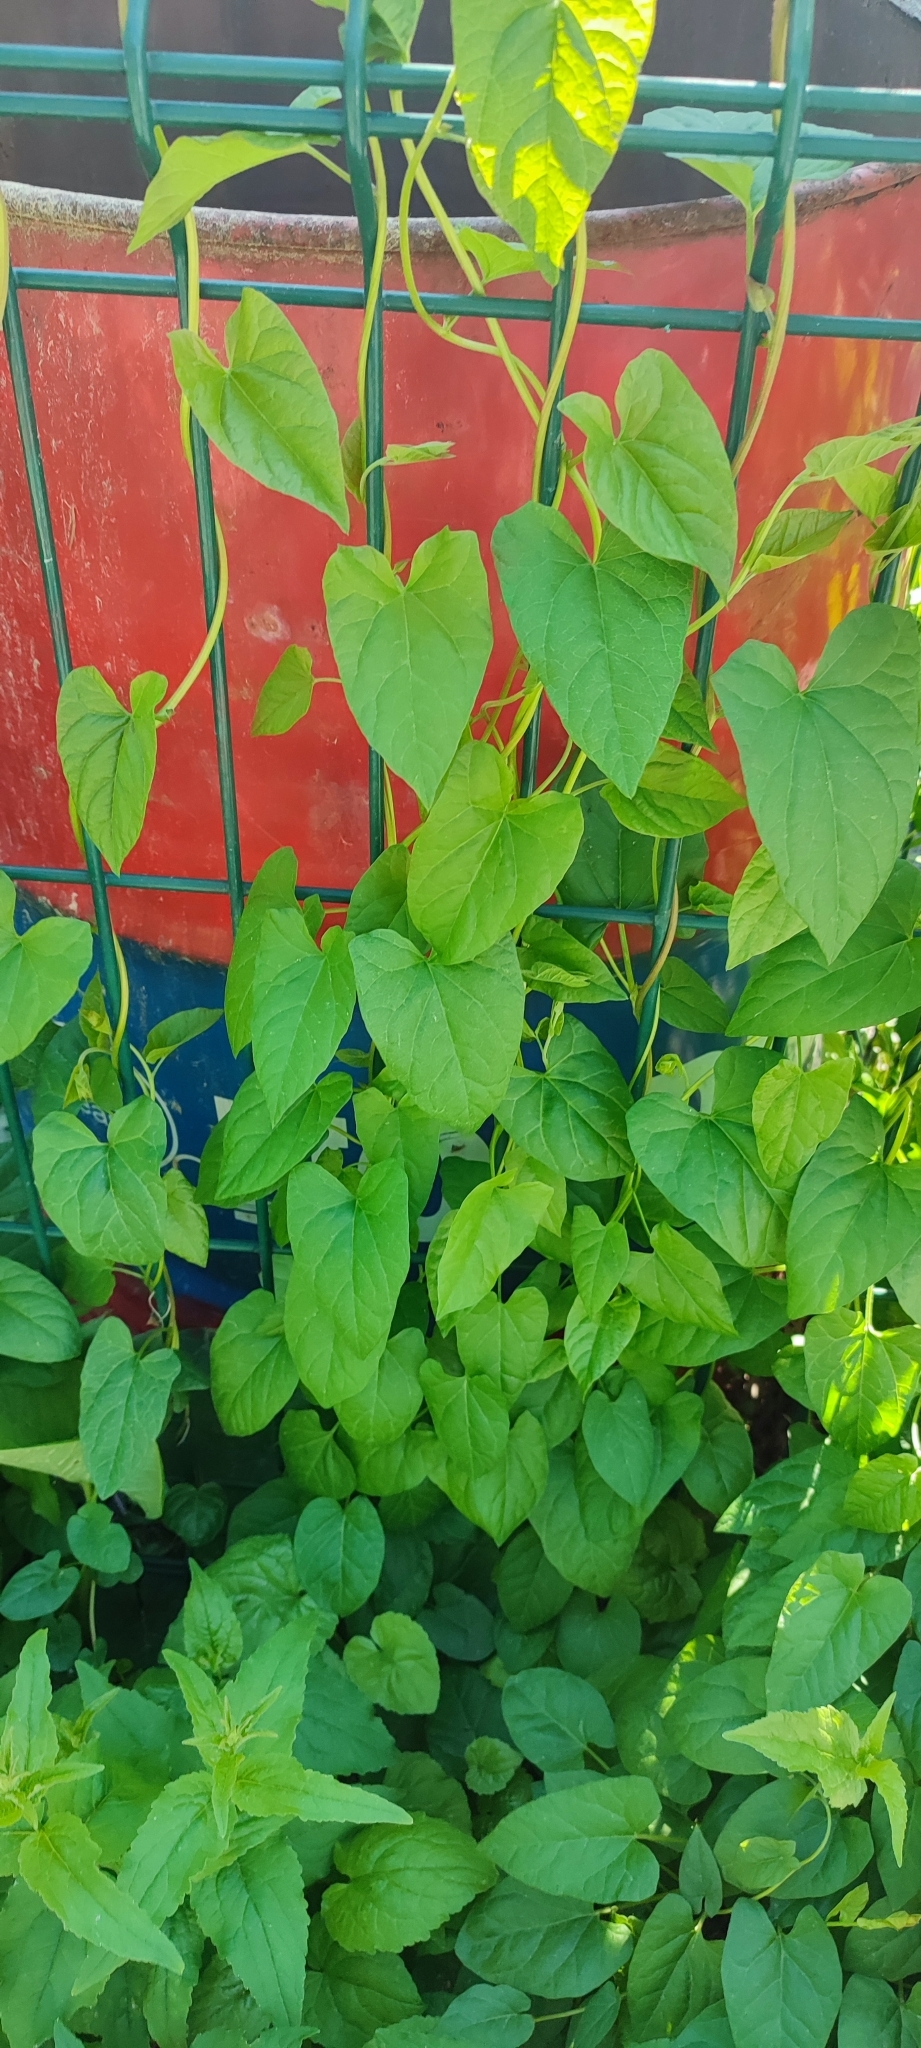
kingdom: Plantae
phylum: Tracheophyta
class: Magnoliopsida
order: Solanales
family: Convolvulaceae
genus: Calystegia
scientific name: Calystegia
